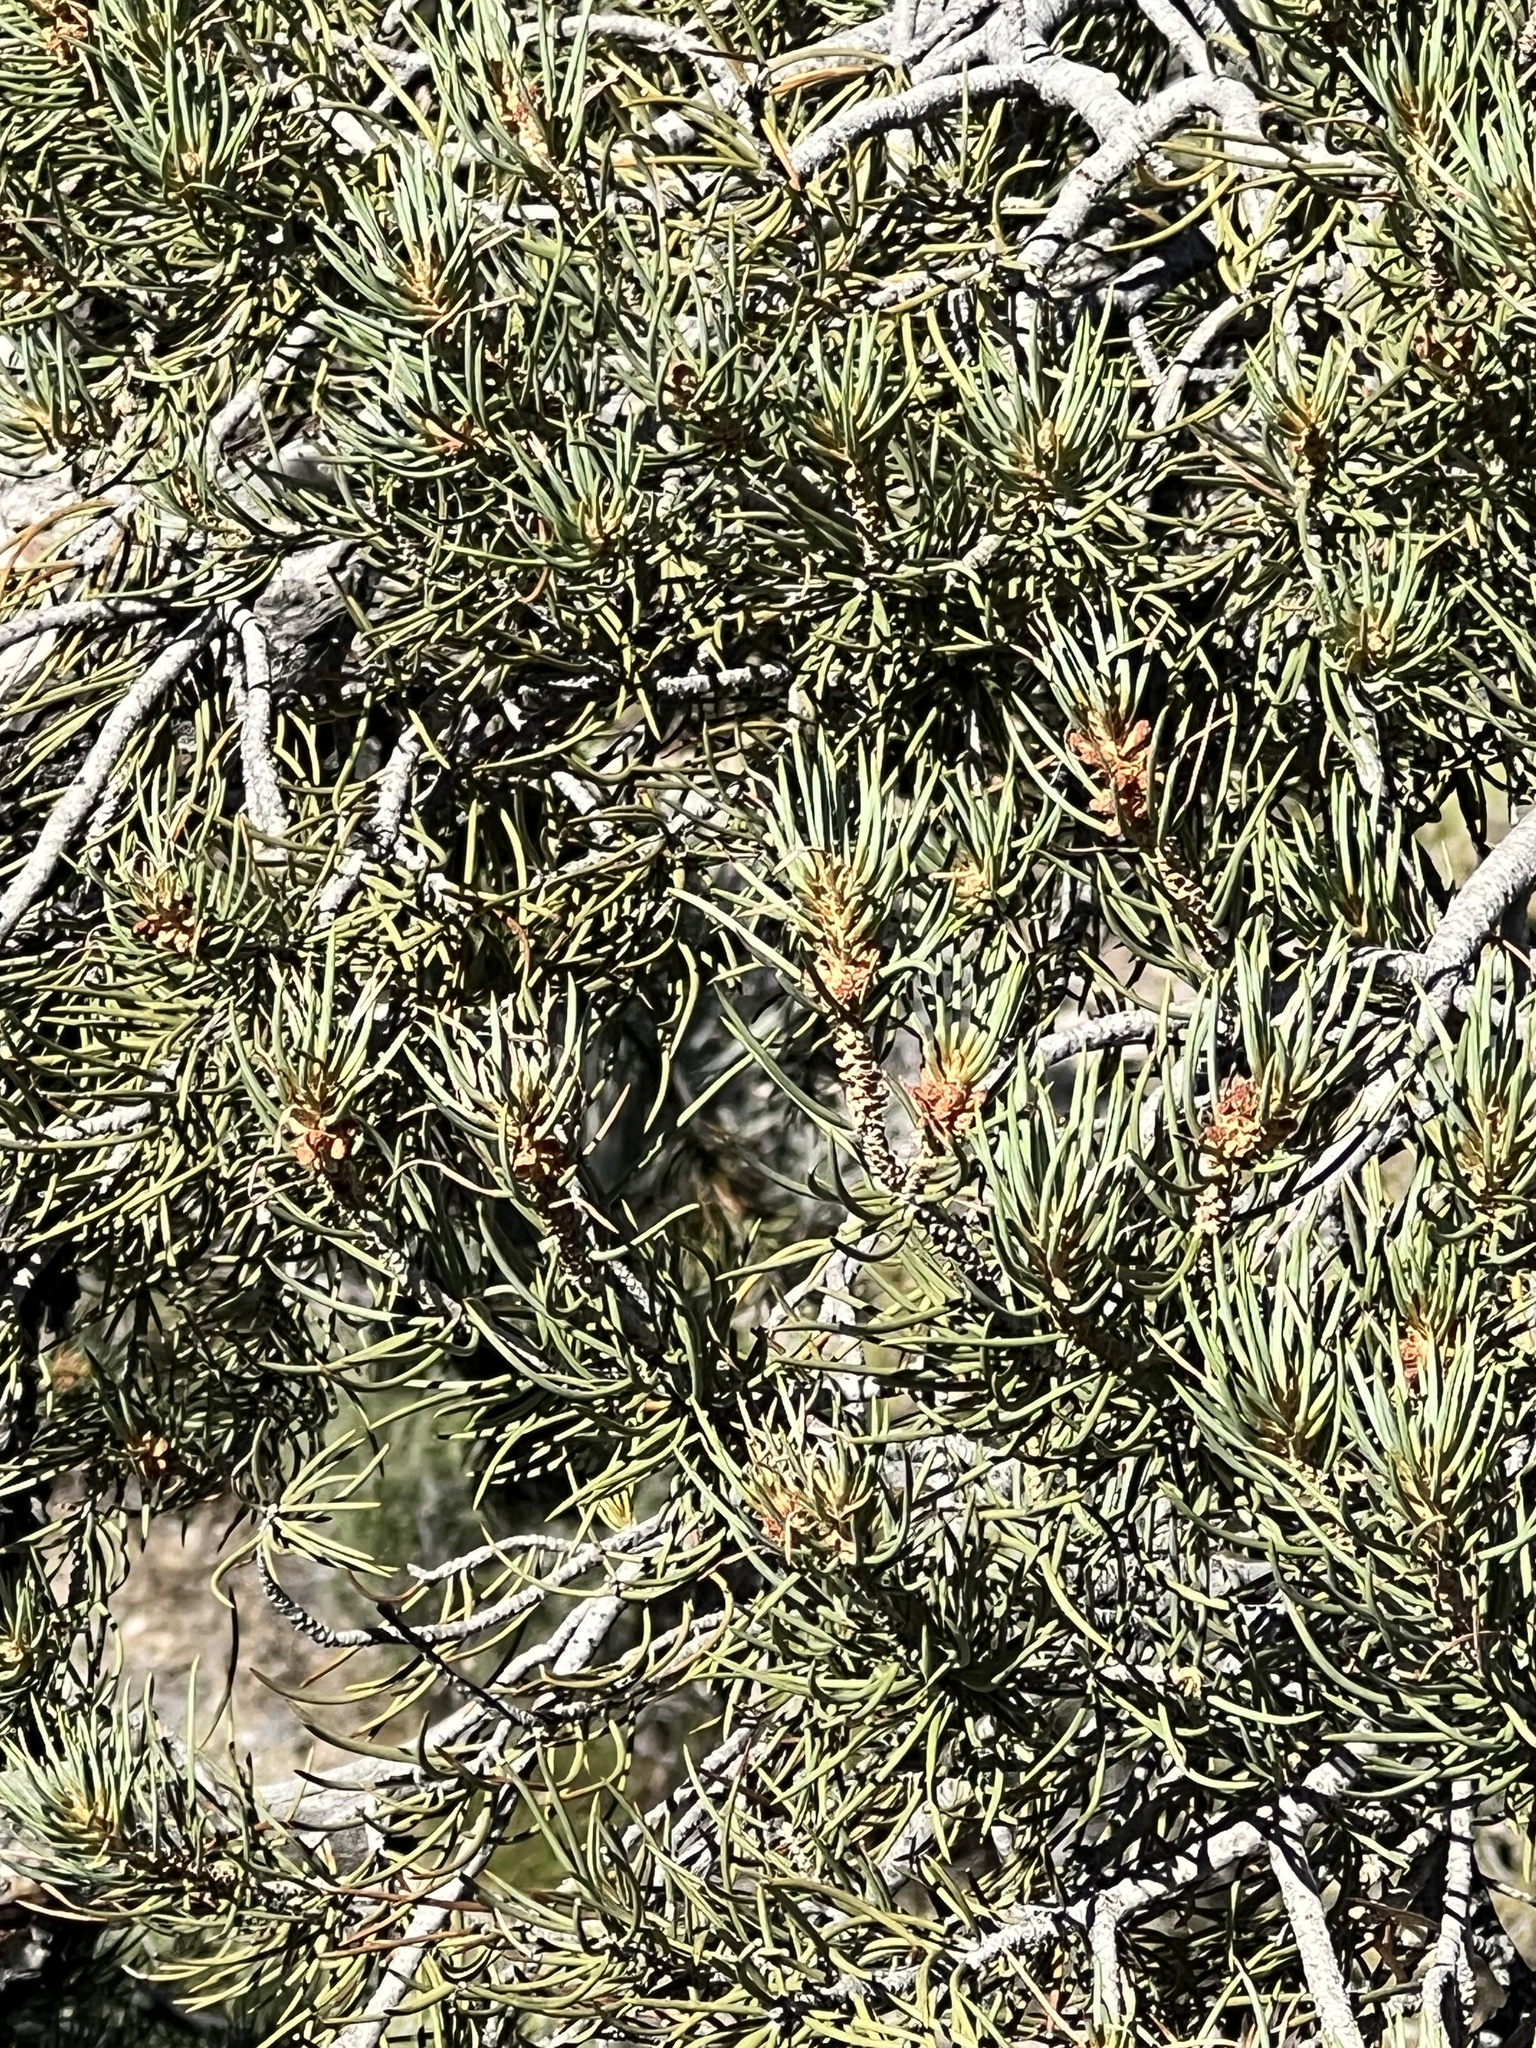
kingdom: Plantae
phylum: Tracheophyta
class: Pinopsida
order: Pinales
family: Pinaceae
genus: Pinus
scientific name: Pinus monophylla
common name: One-leaved nut pine
